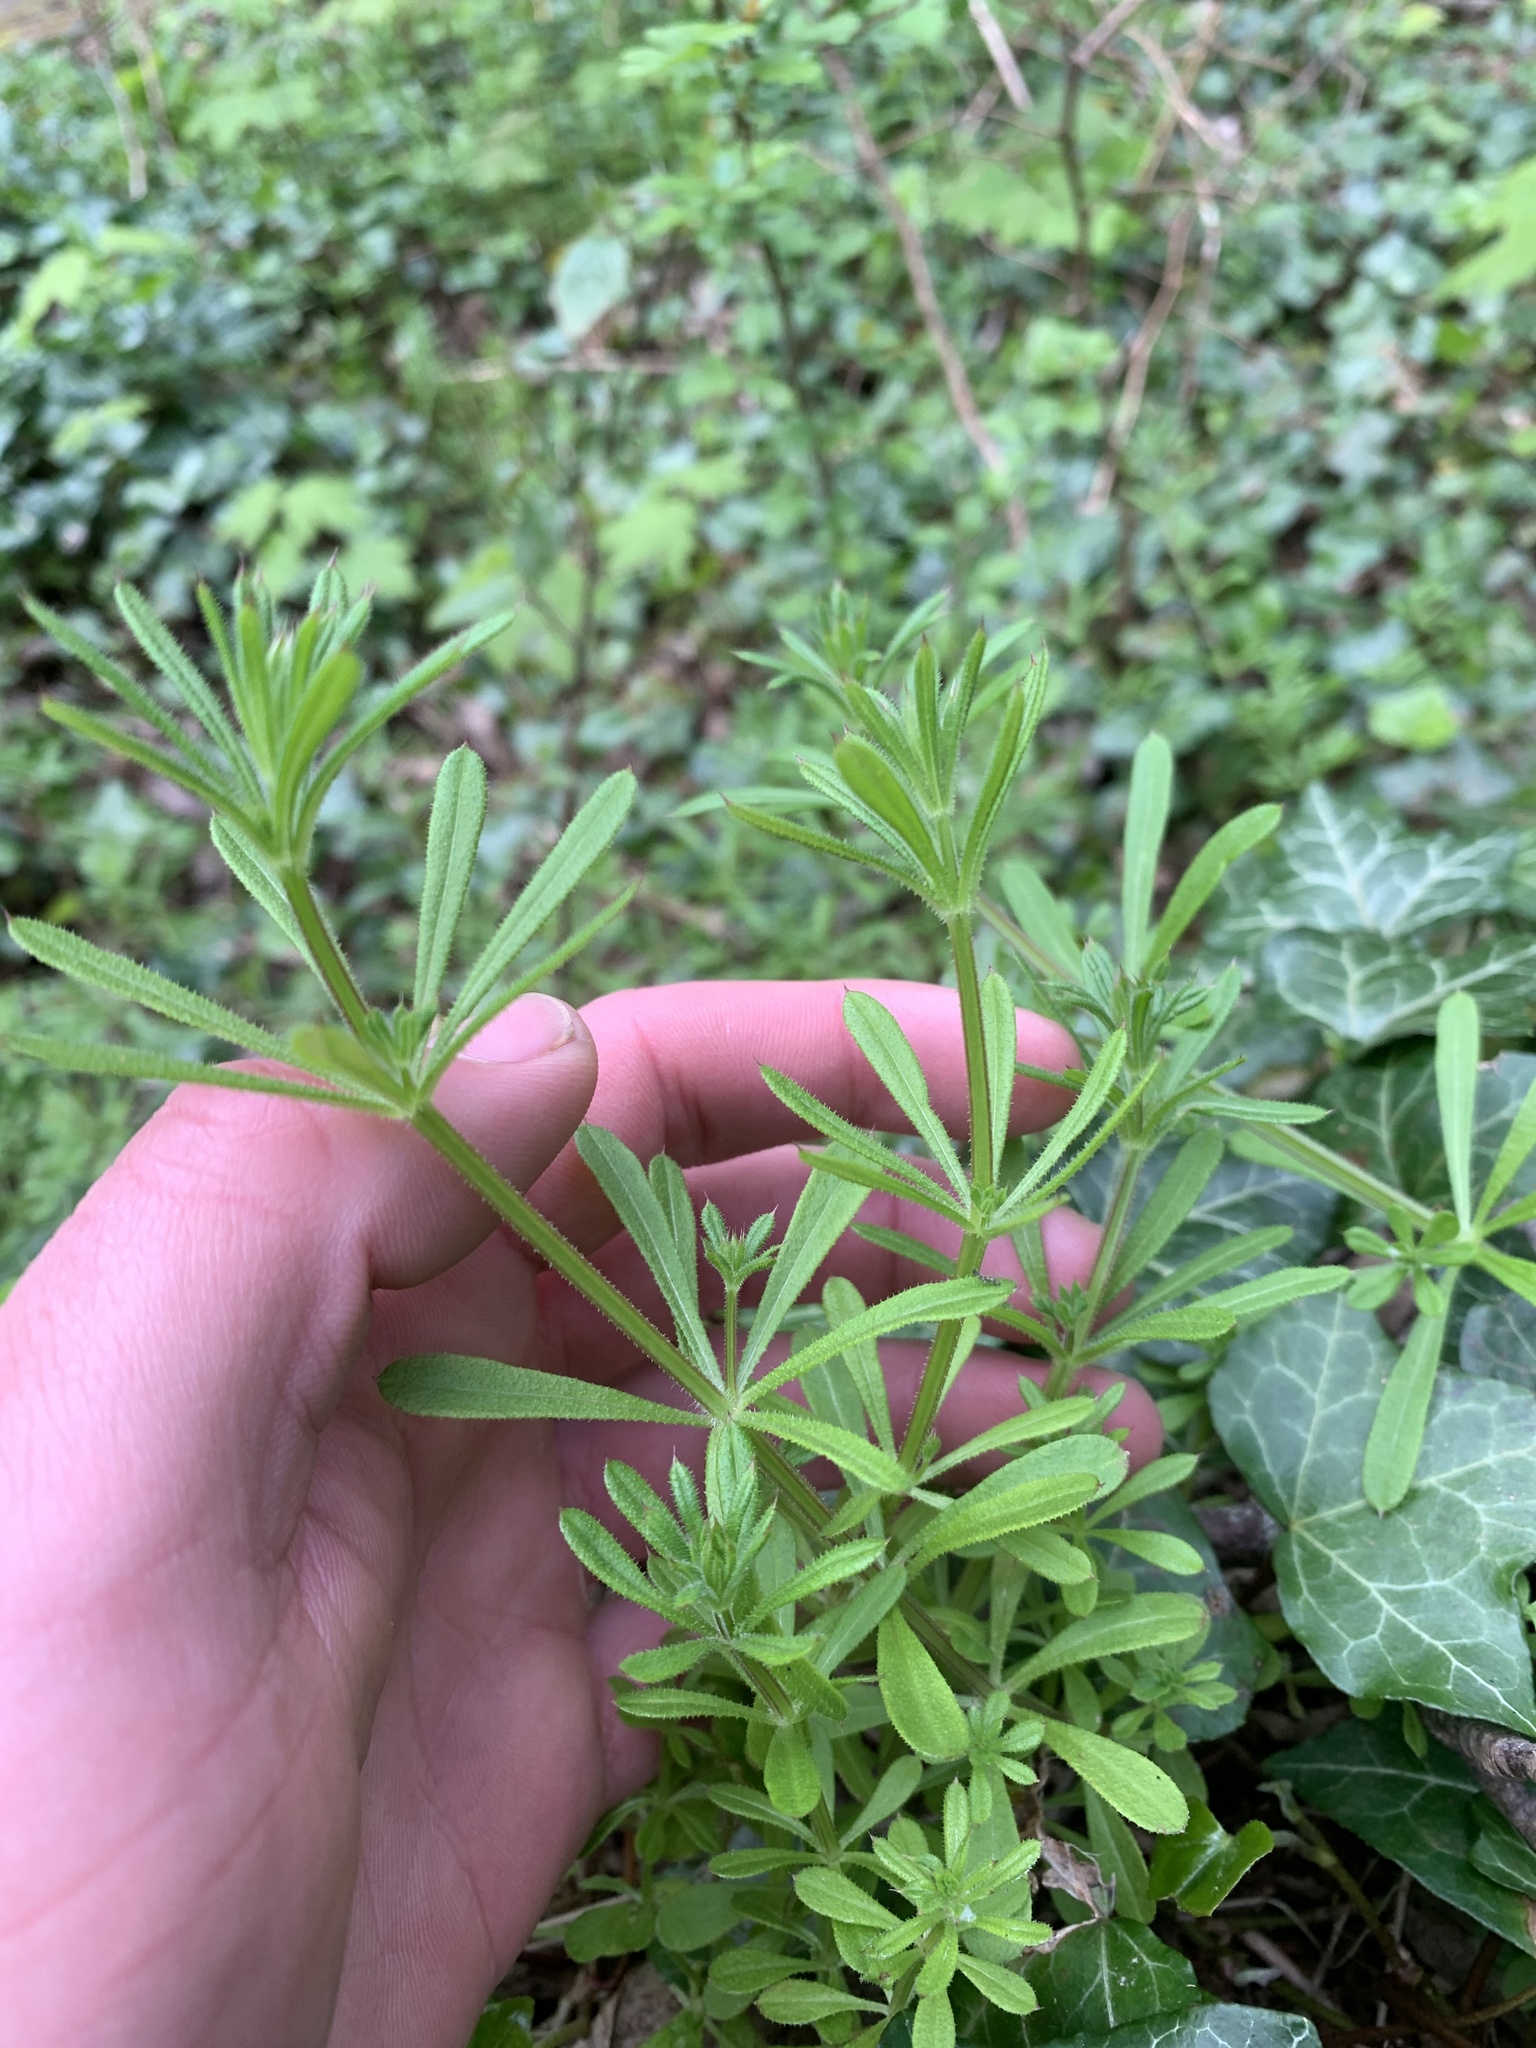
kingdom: Plantae
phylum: Tracheophyta
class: Magnoliopsida
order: Gentianales
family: Rubiaceae
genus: Galium
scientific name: Galium aparine
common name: Cleavers
